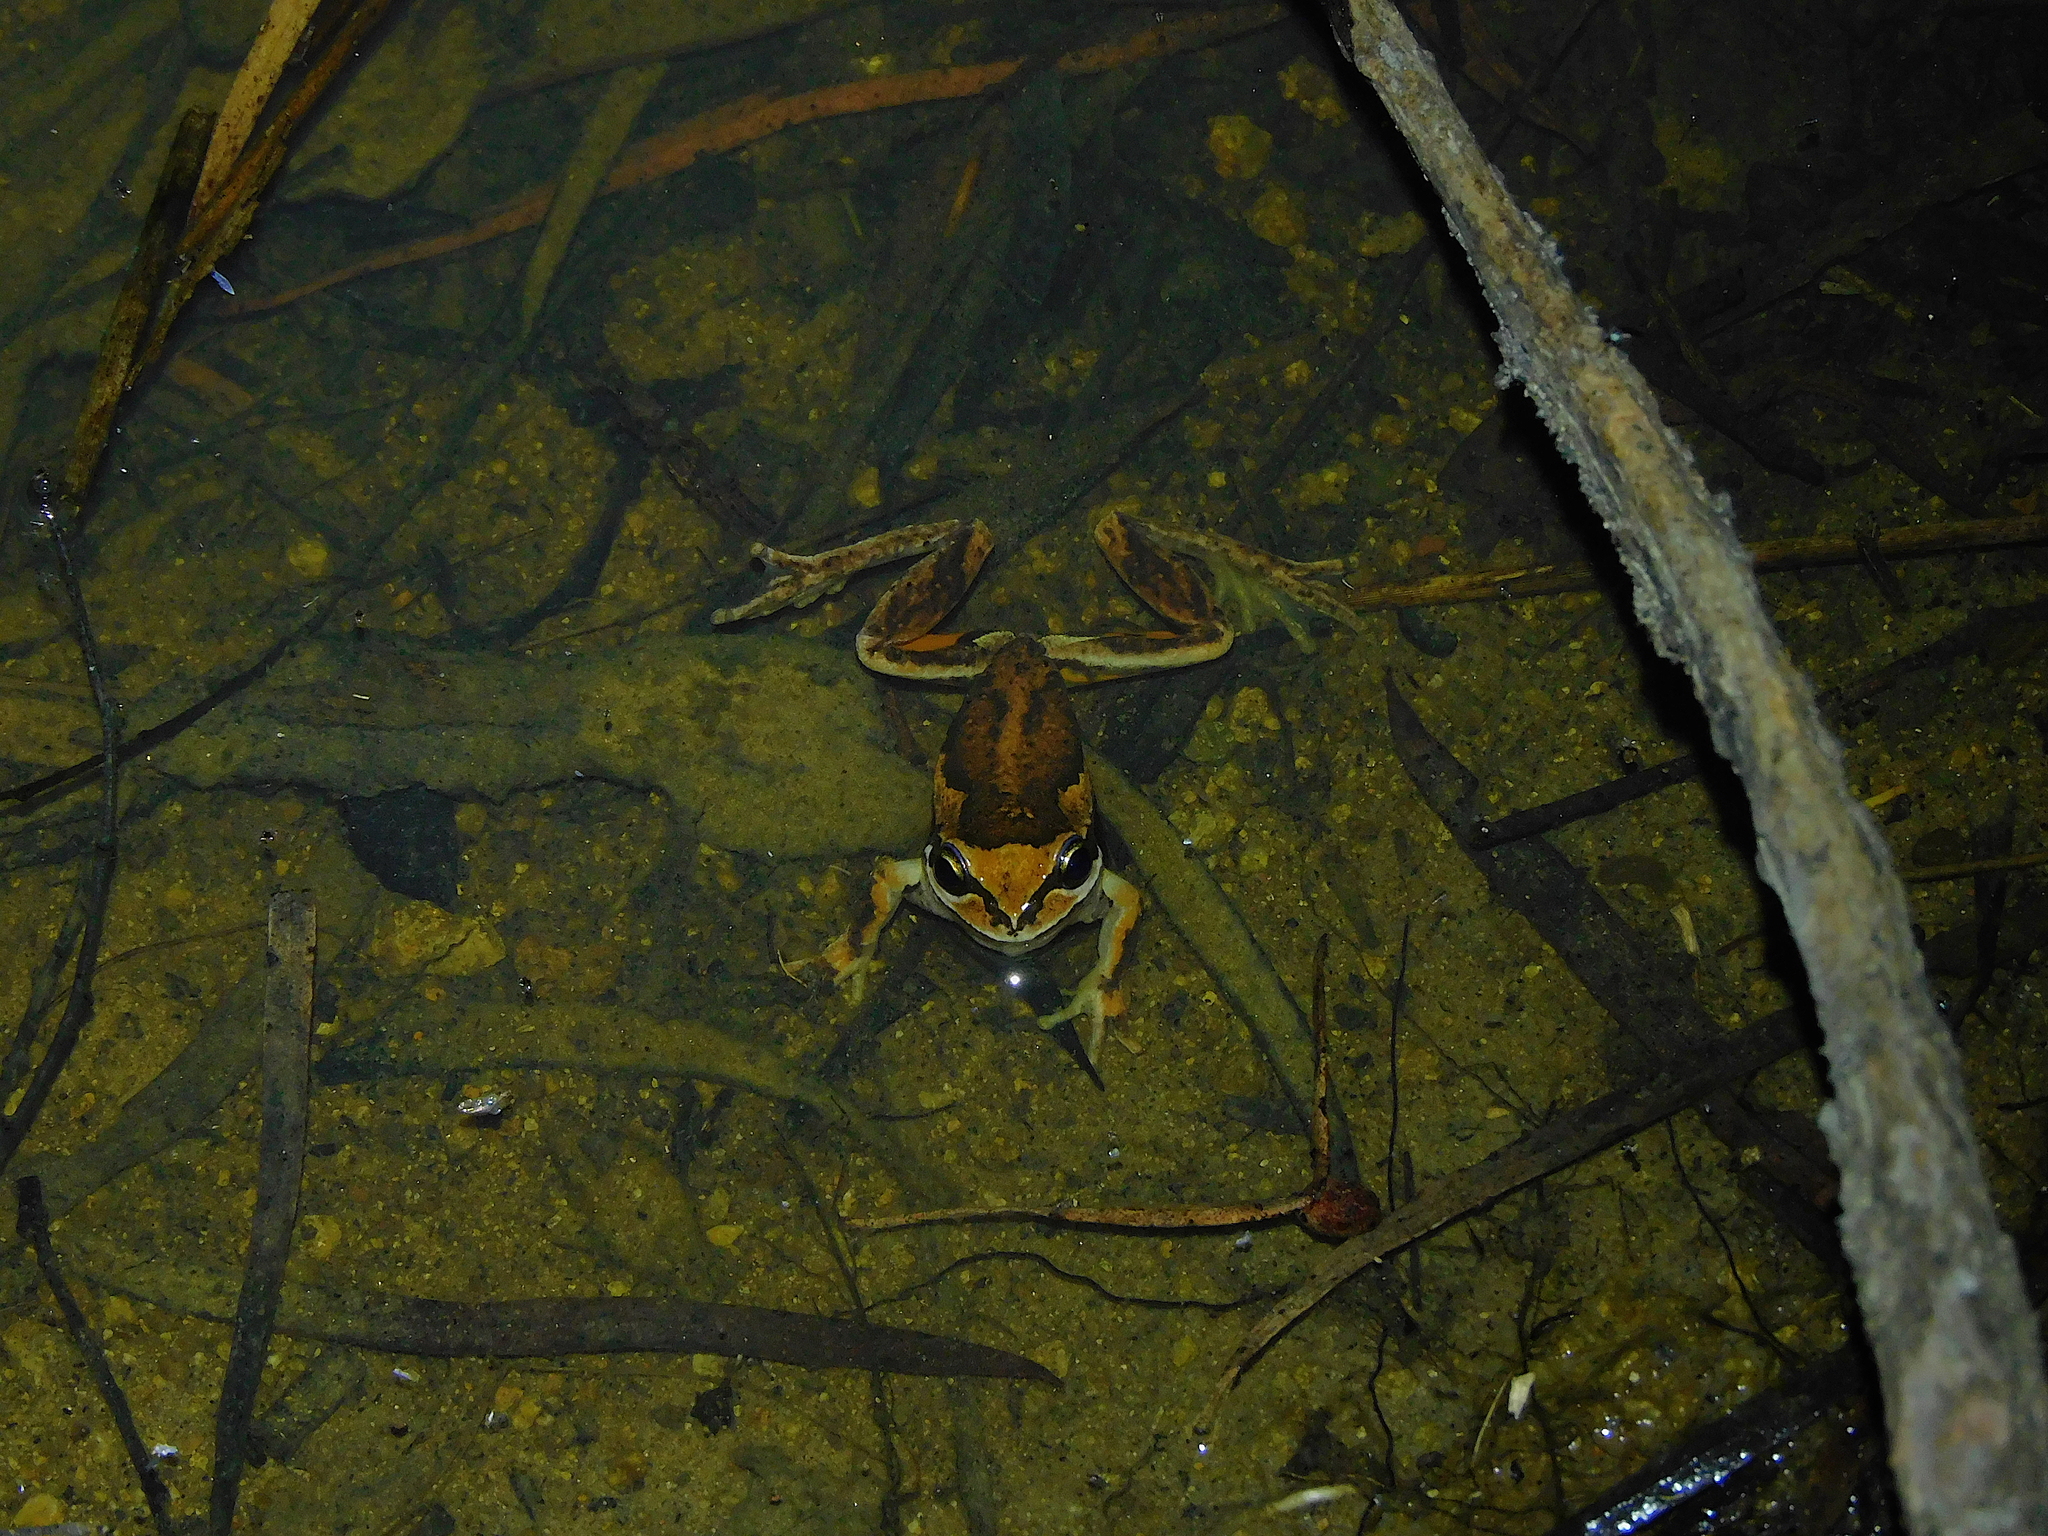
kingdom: Animalia
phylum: Chordata
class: Amphibia
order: Anura
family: Pelodryadidae
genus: Litoria
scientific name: Litoria ewingii
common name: Southern brown tree frog
